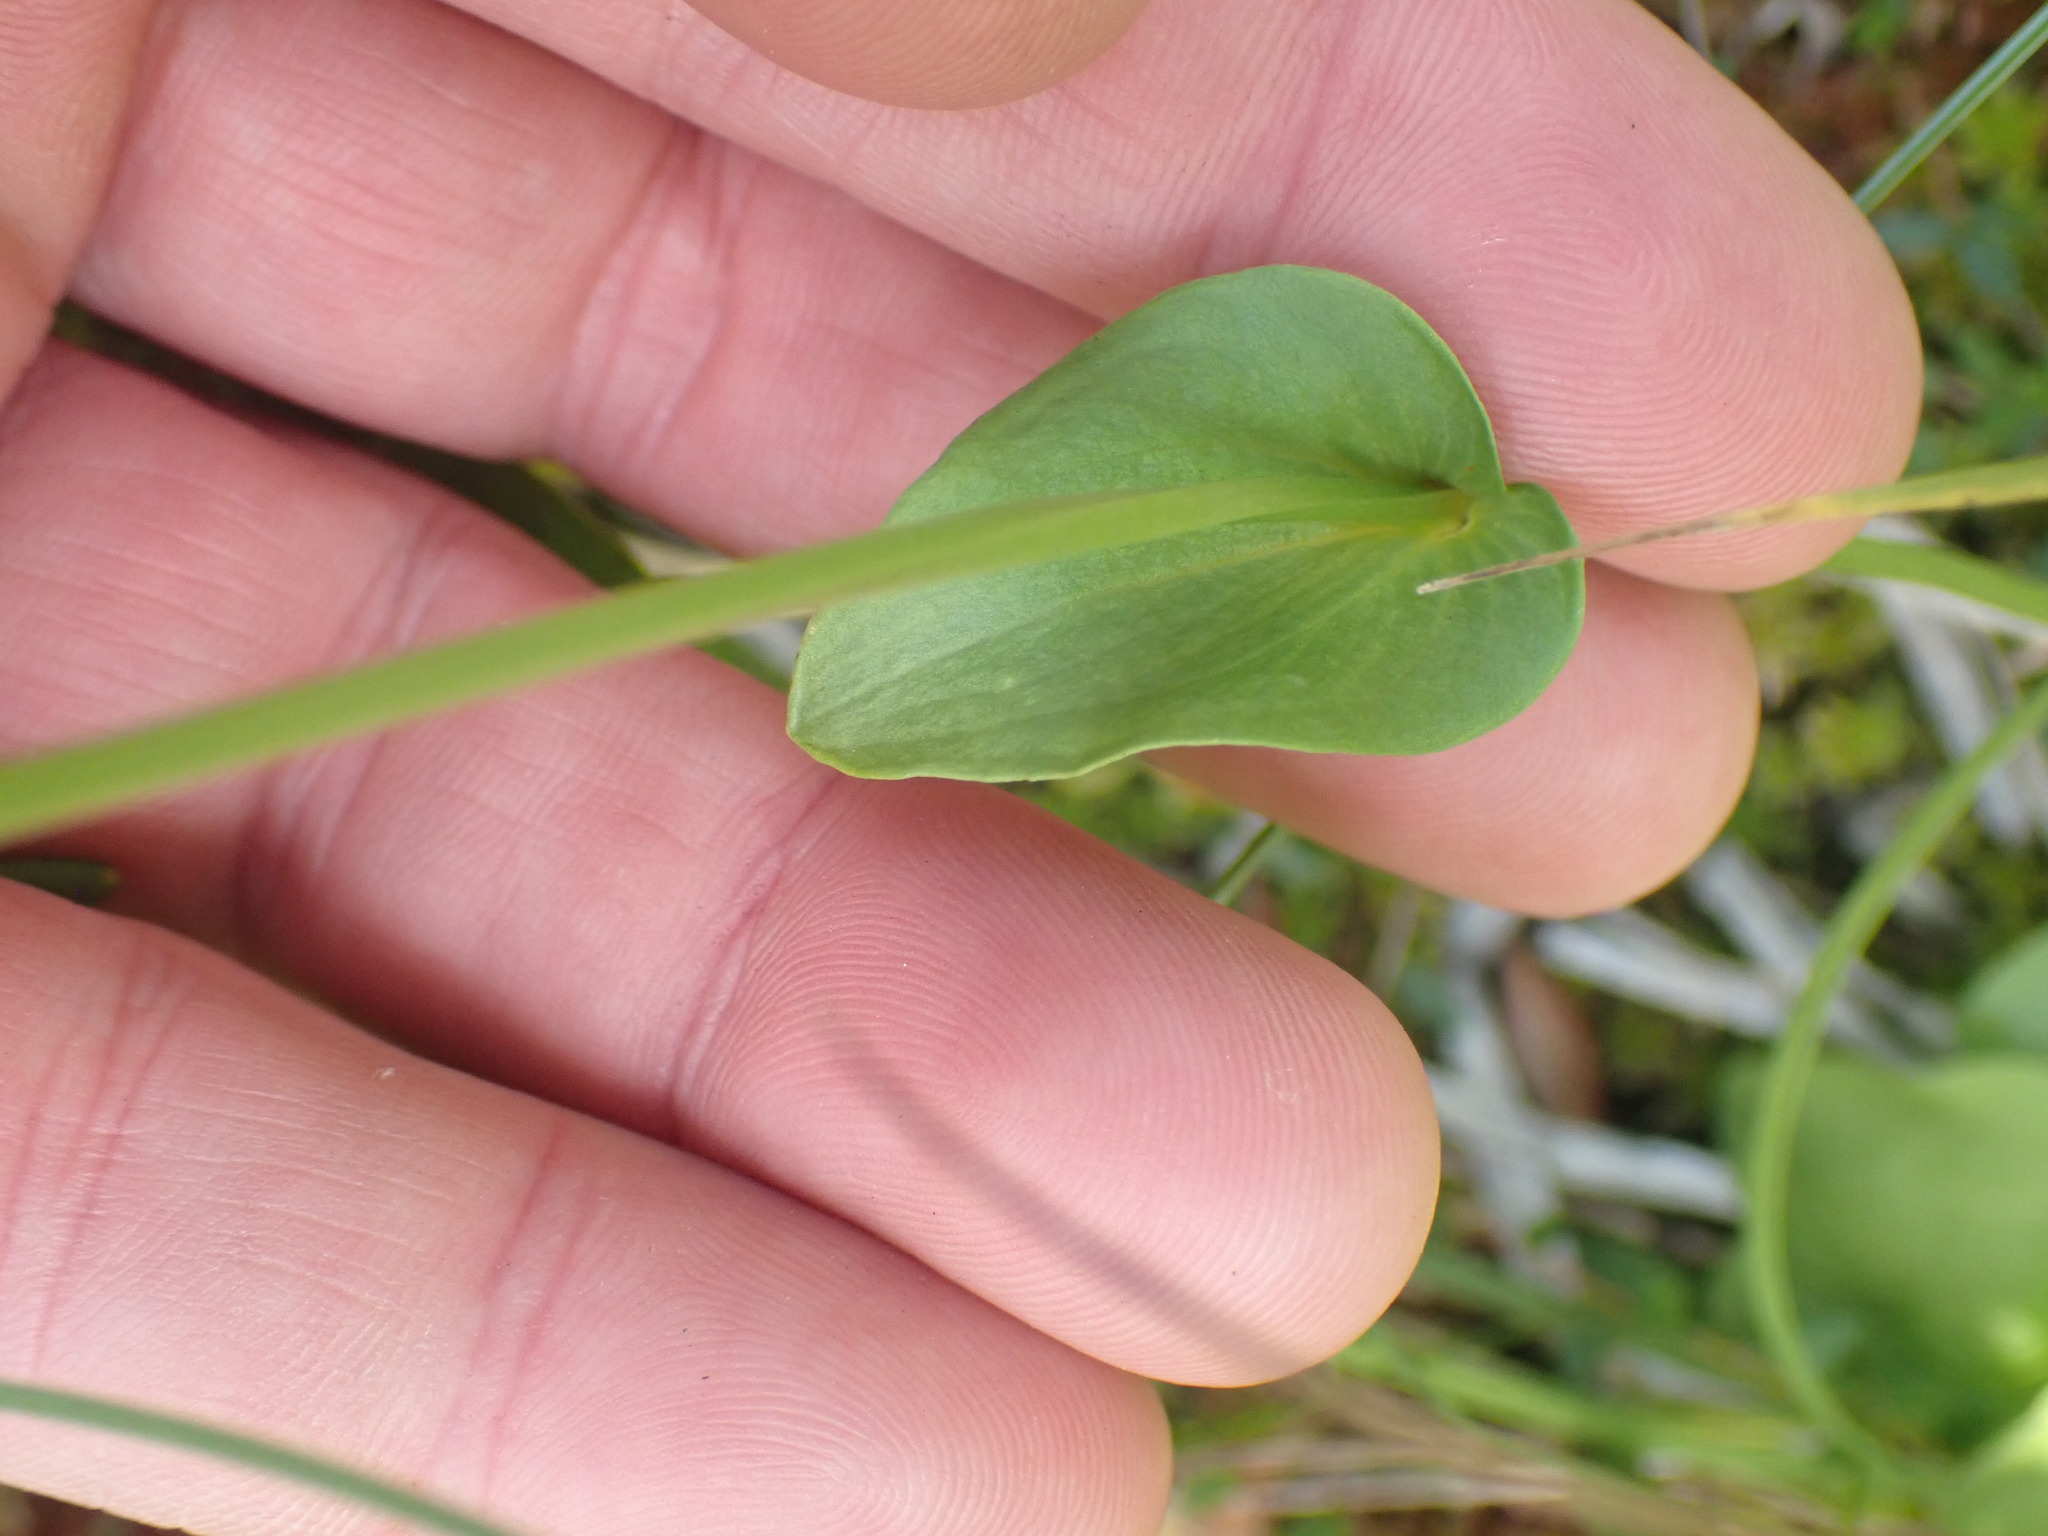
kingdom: Plantae
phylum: Tracheophyta
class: Magnoliopsida
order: Celastrales
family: Parnassiaceae
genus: Parnassia
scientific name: Parnassia palustris
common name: Grass-of-parnassus
